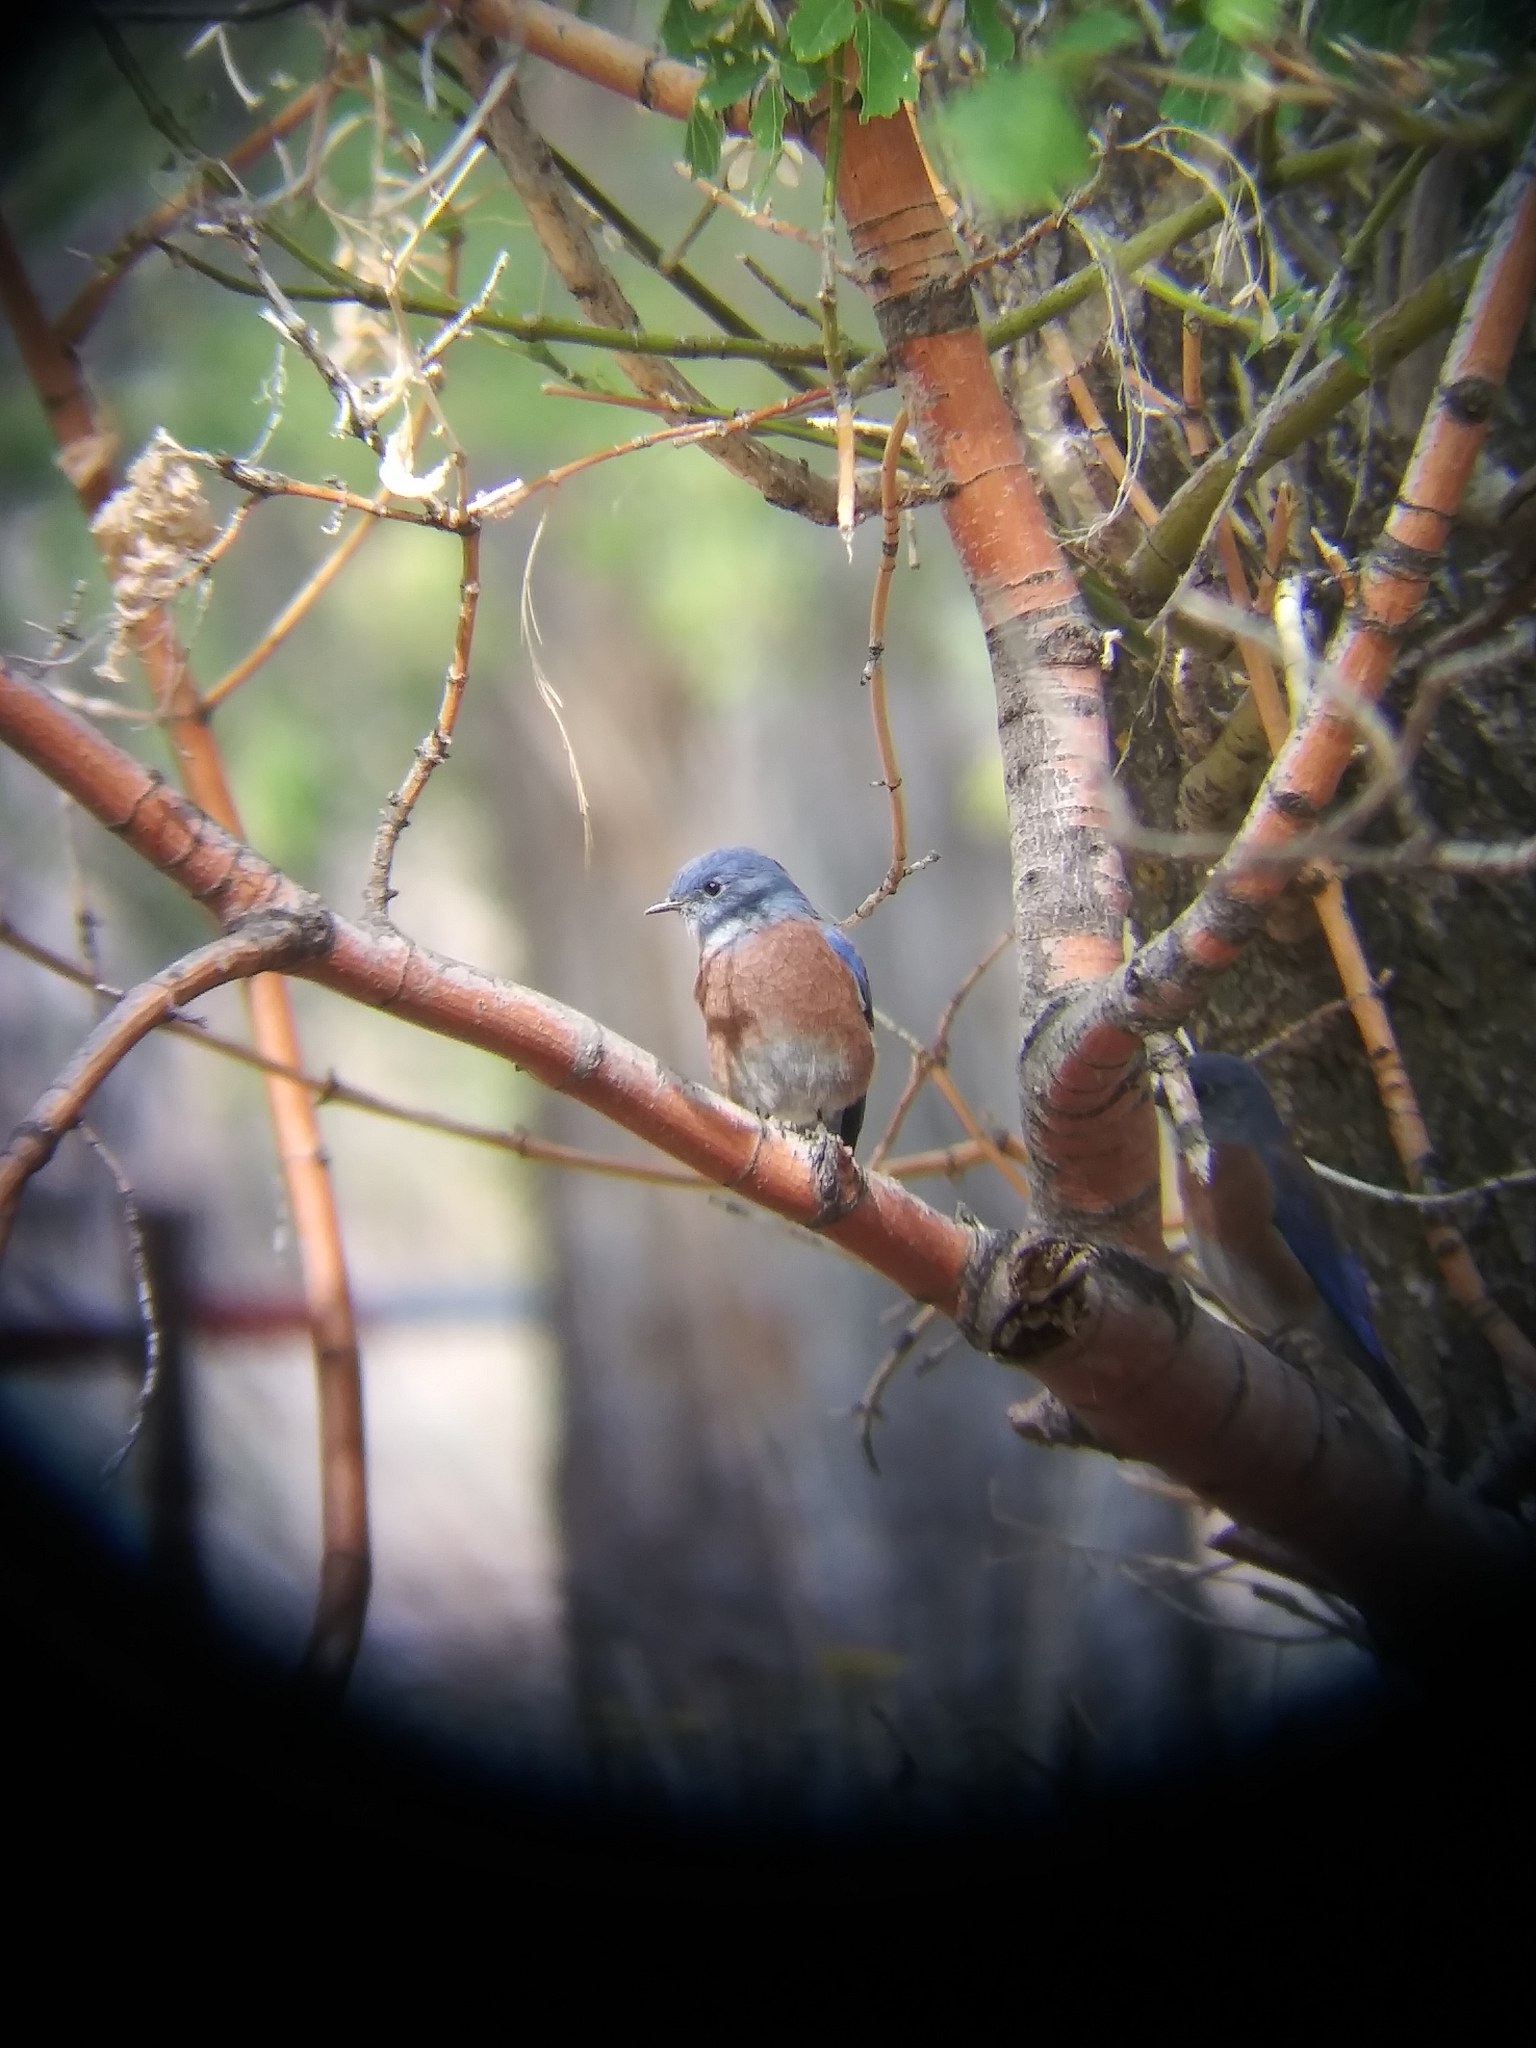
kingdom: Animalia
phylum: Chordata
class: Aves
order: Passeriformes
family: Turdidae
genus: Sialia
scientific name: Sialia mexicana
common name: Western bluebird
